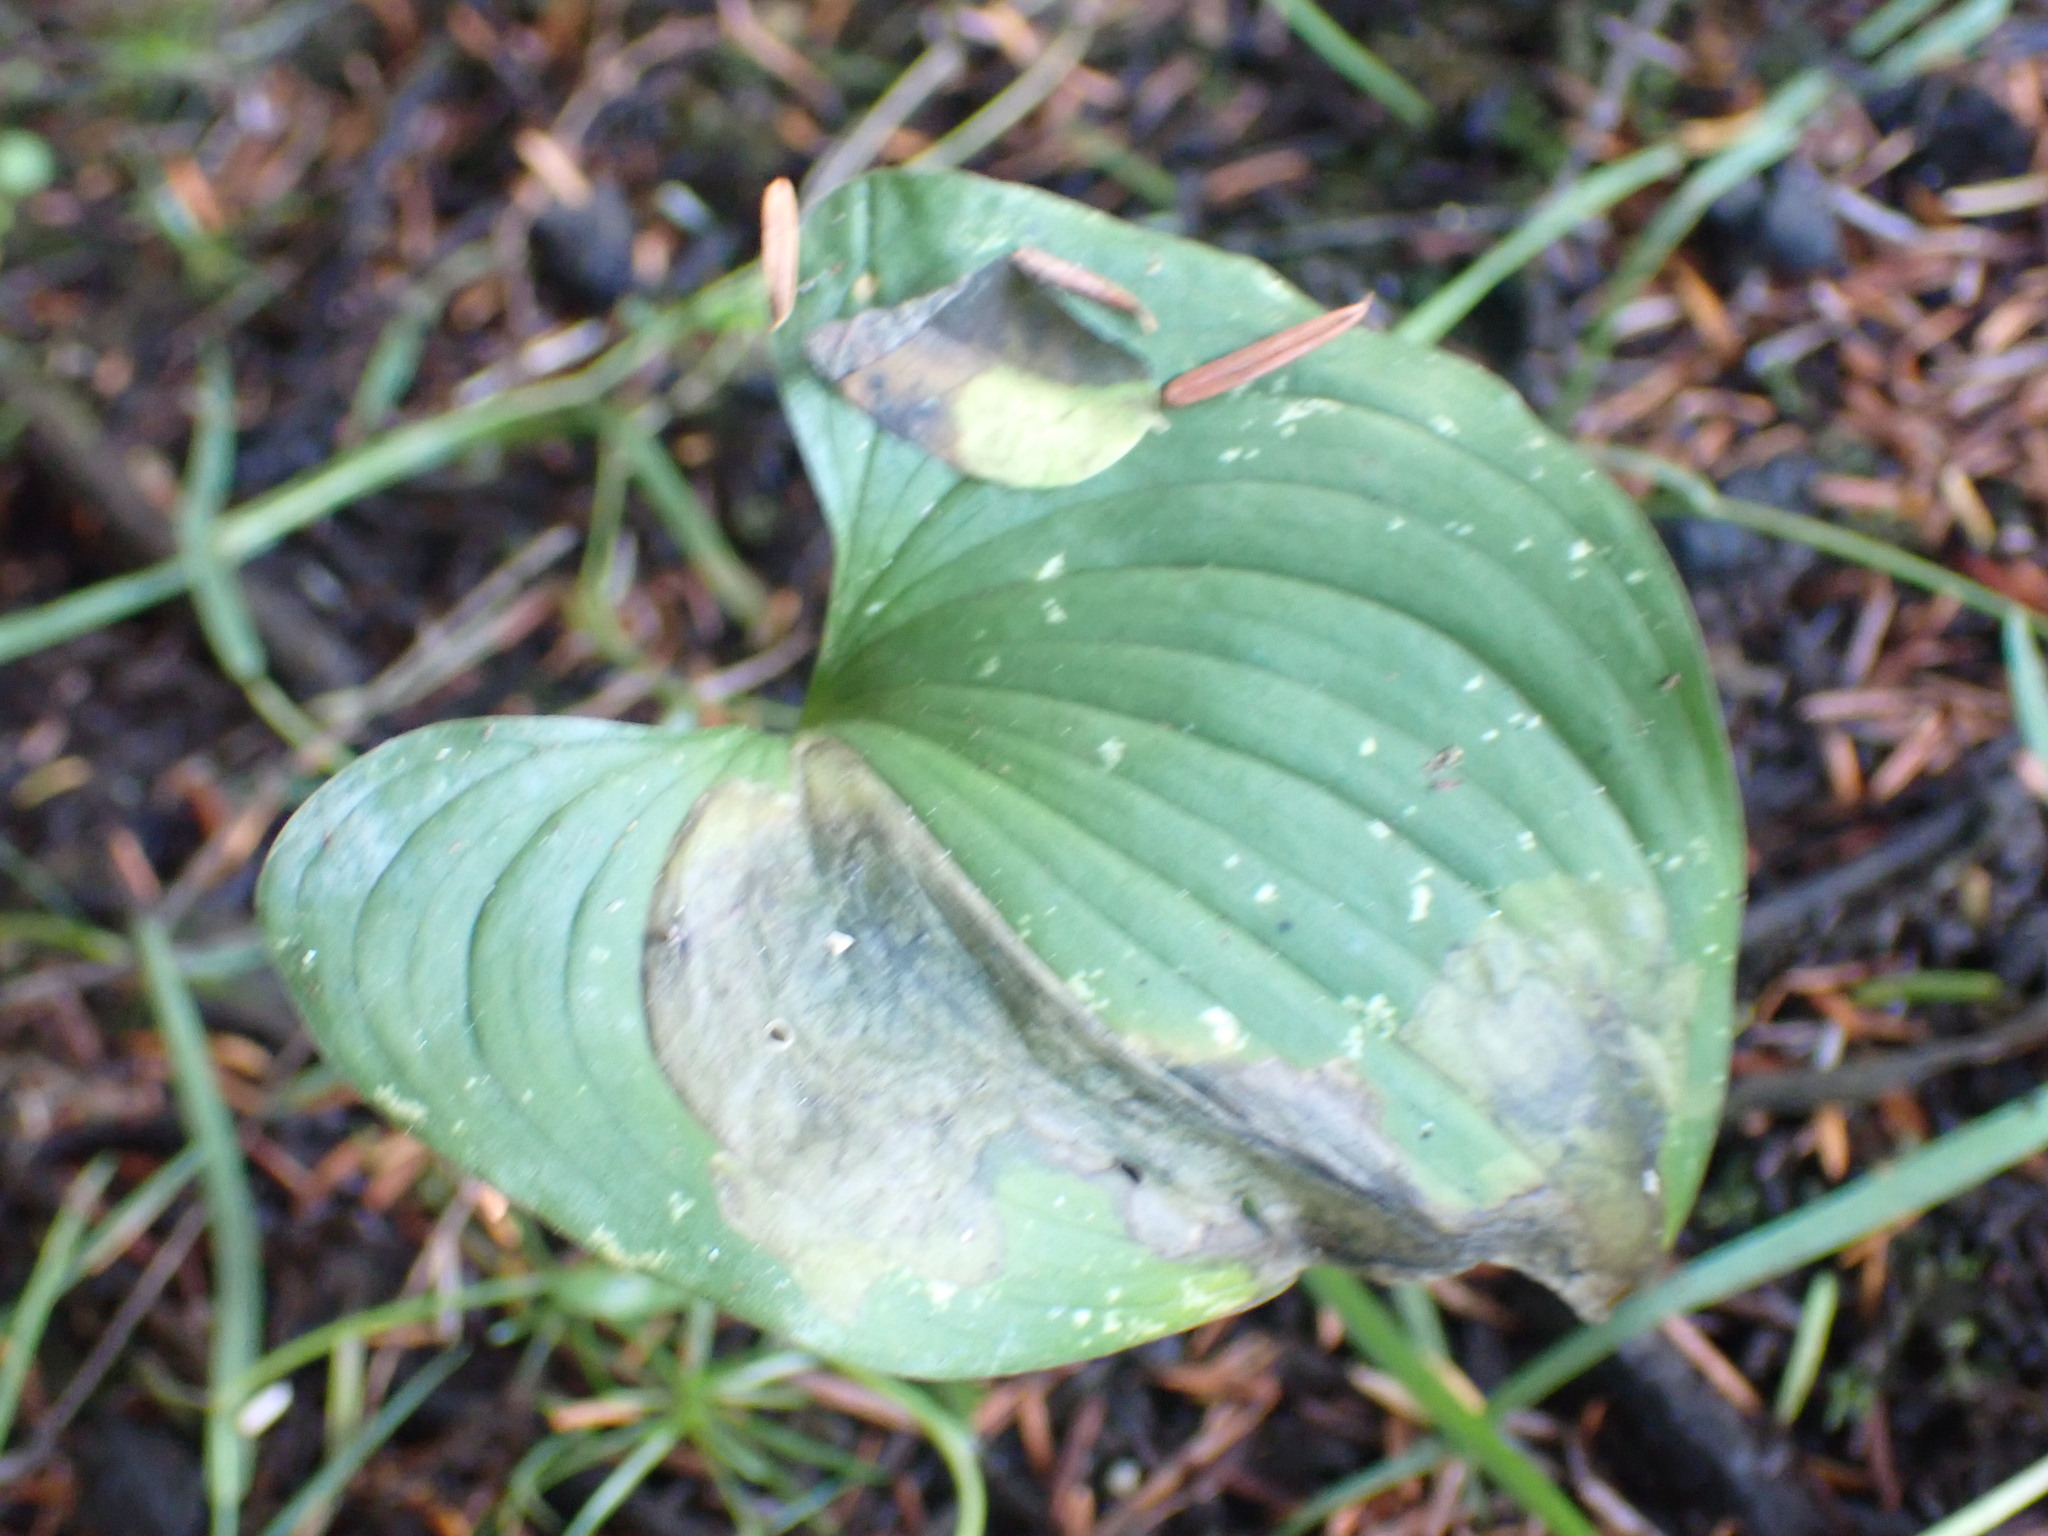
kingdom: Plantae
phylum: Tracheophyta
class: Liliopsida
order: Asparagales
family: Asparagaceae
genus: Maianthemum
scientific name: Maianthemum dilatatum
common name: False lily-of-the-valley
